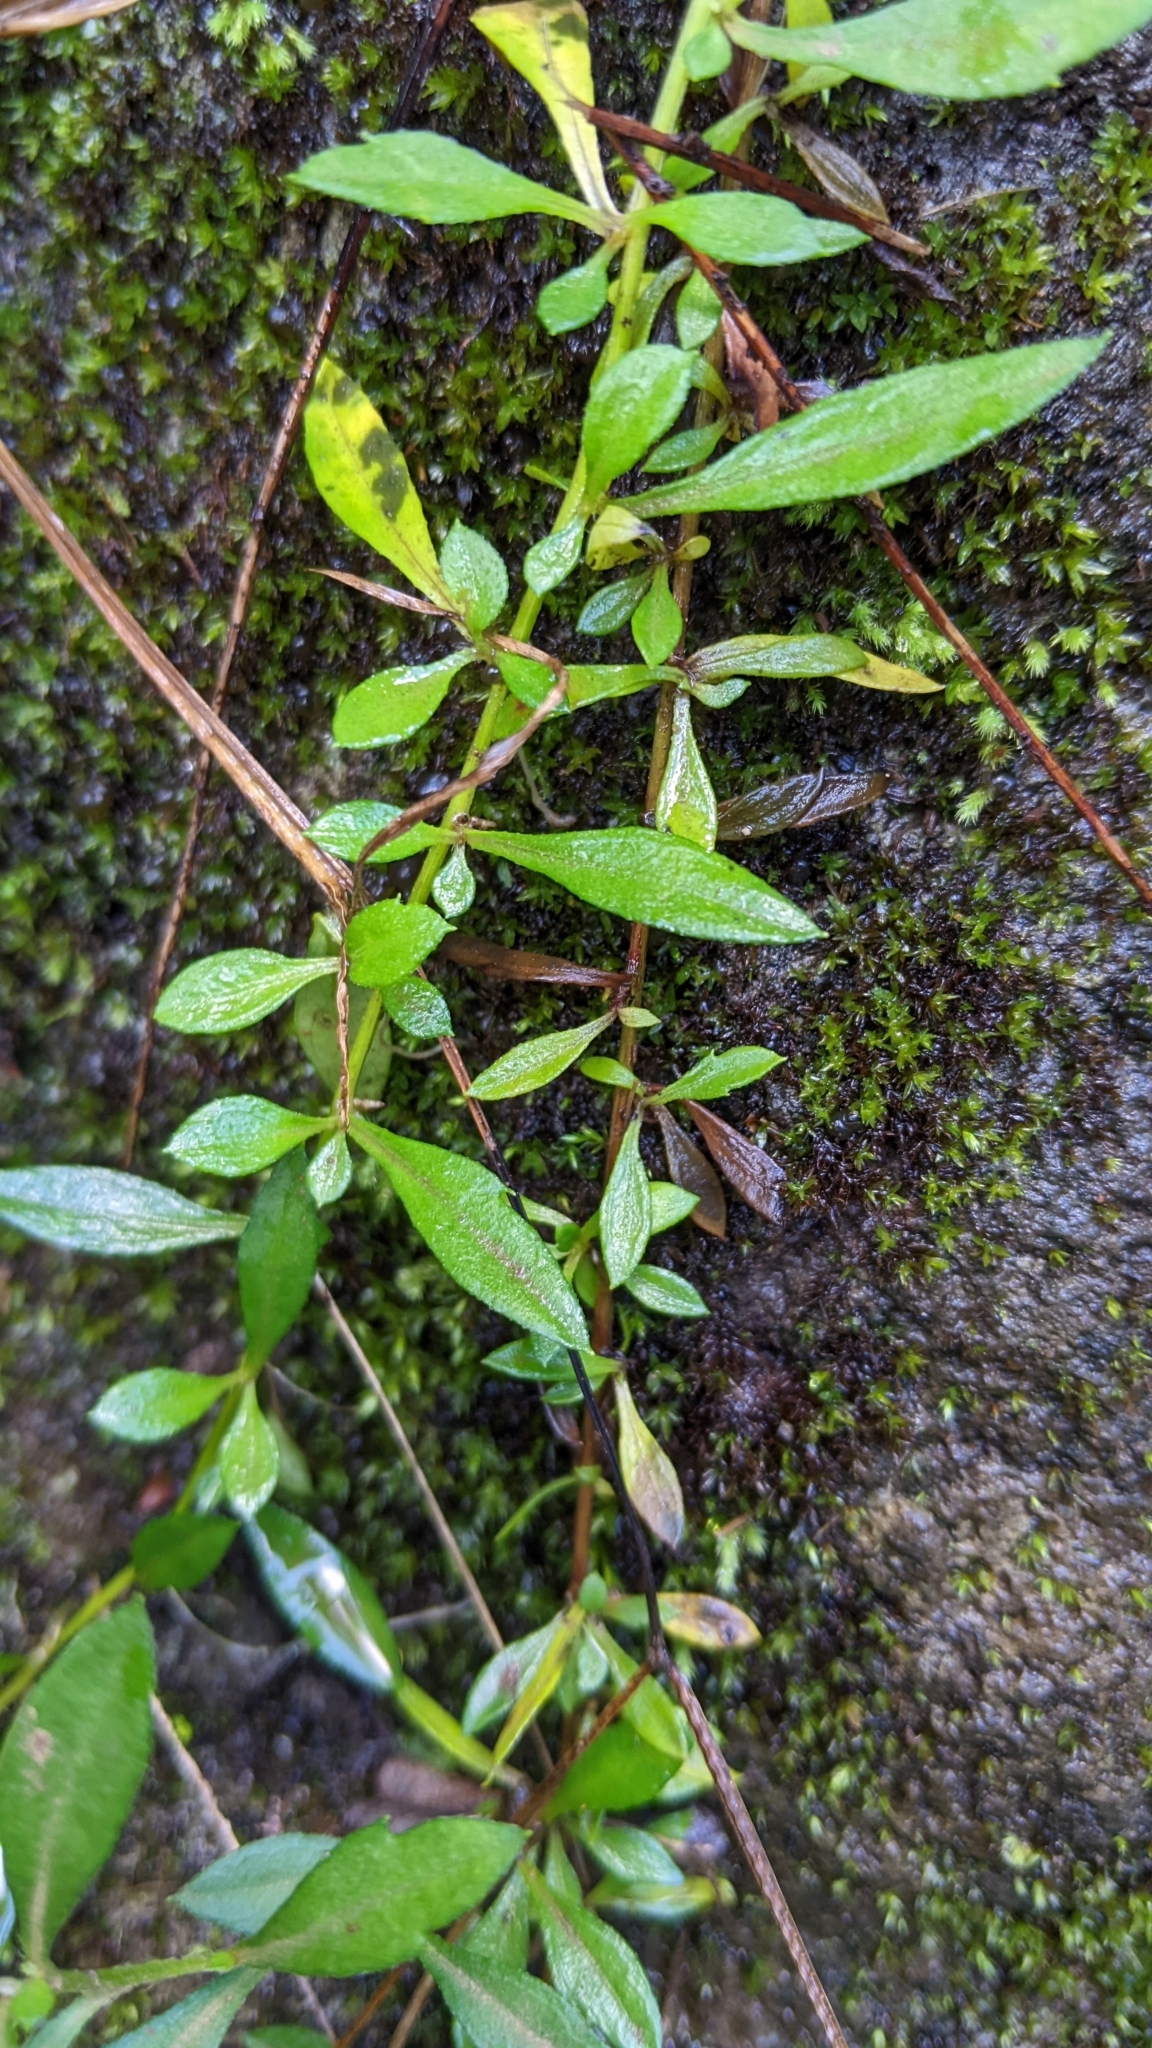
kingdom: Plantae
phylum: Tracheophyta
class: Magnoliopsida
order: Asterales
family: Asteraceae
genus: Erigeron
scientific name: Erigeron karvinskianus
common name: Mexican fleabane
